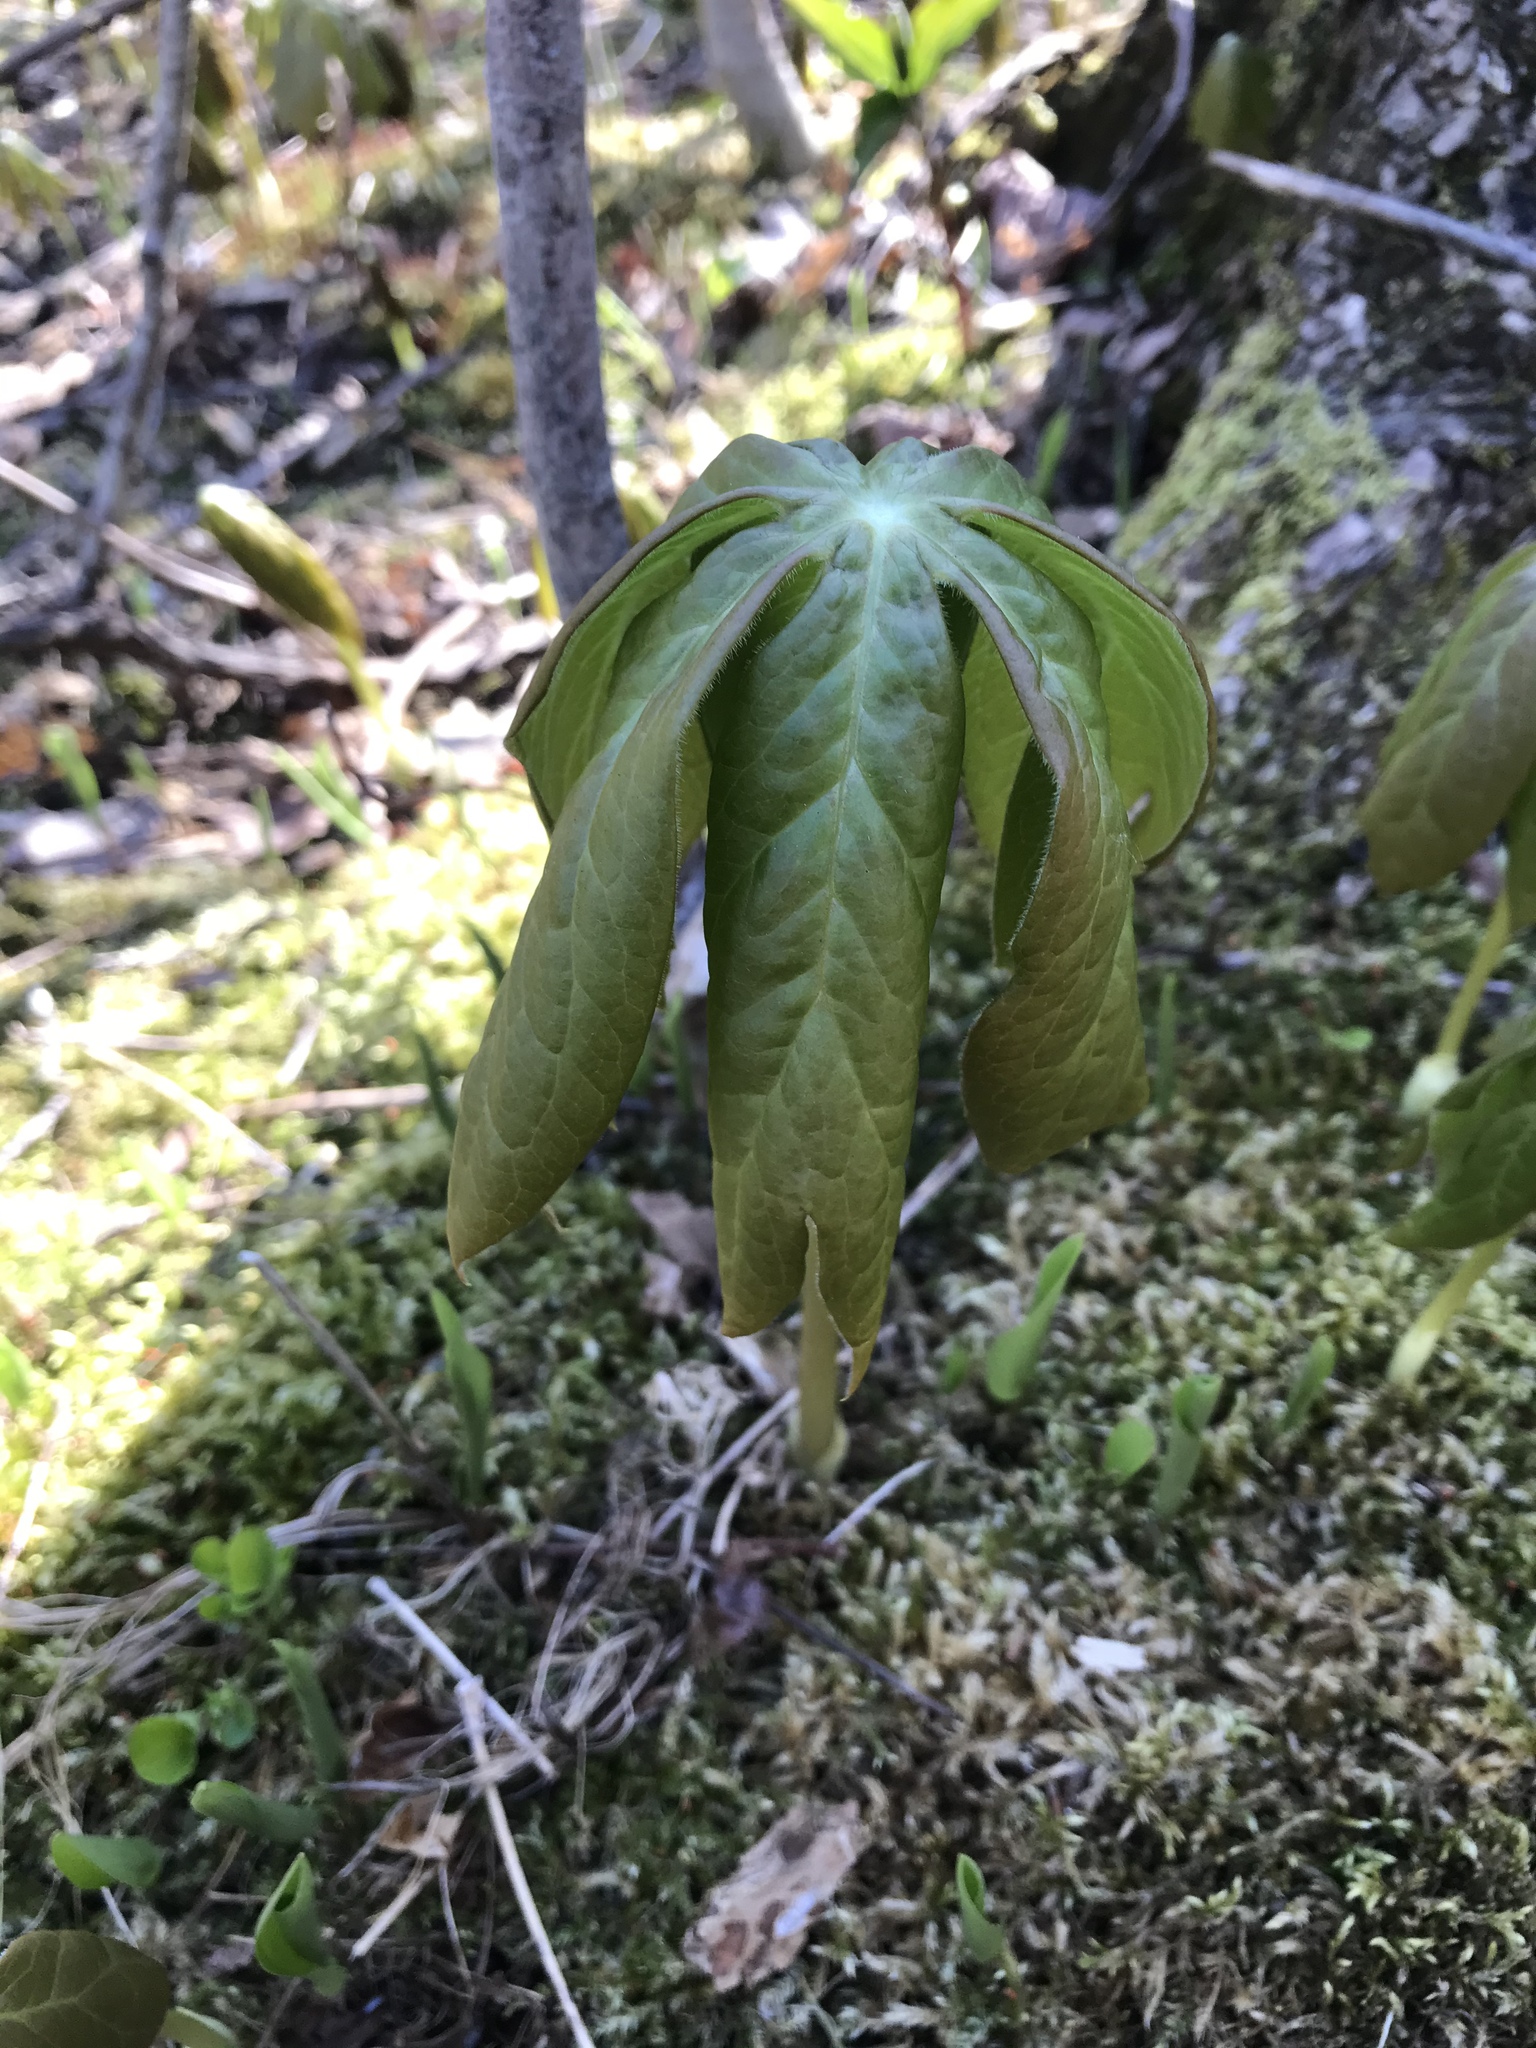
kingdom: Plantae
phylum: Tracheophyta
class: Magnoliopsida
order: Ranunculales
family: Berberidaceae
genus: Podophyllum
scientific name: Podophyllum peltatum
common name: Wild mandrake
